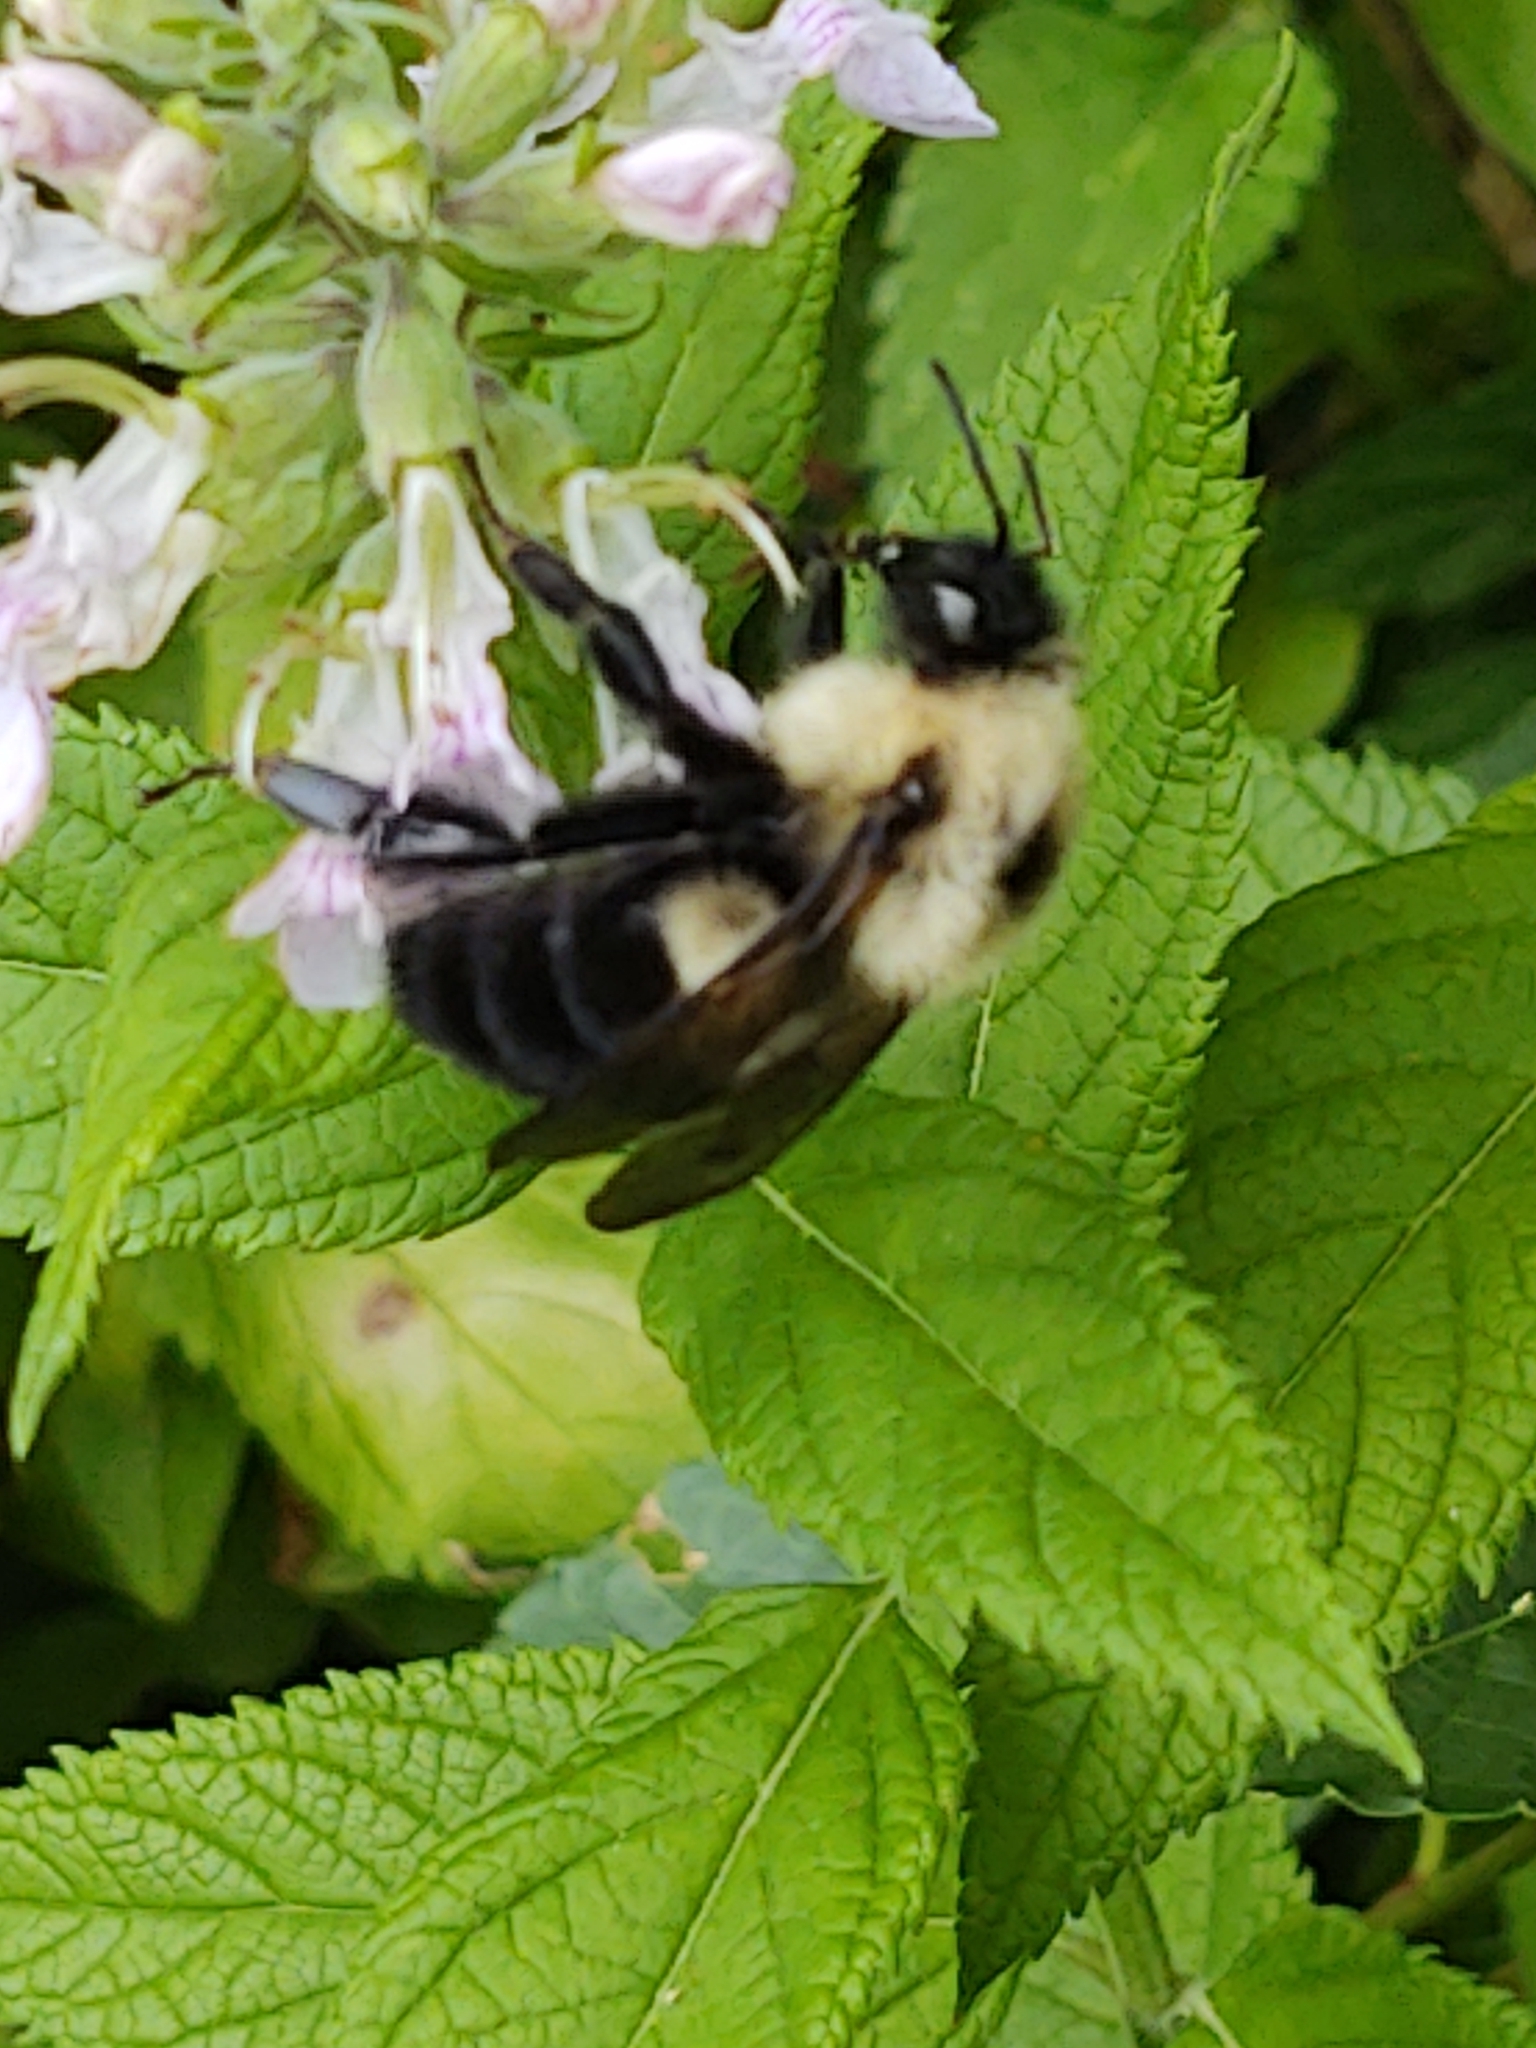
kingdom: Animalia
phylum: Arthropoda
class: Insecta
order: Hymenoptera
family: Apidae
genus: Bombus
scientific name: Bombus bimaculatus
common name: Two-spotted bumble bee
